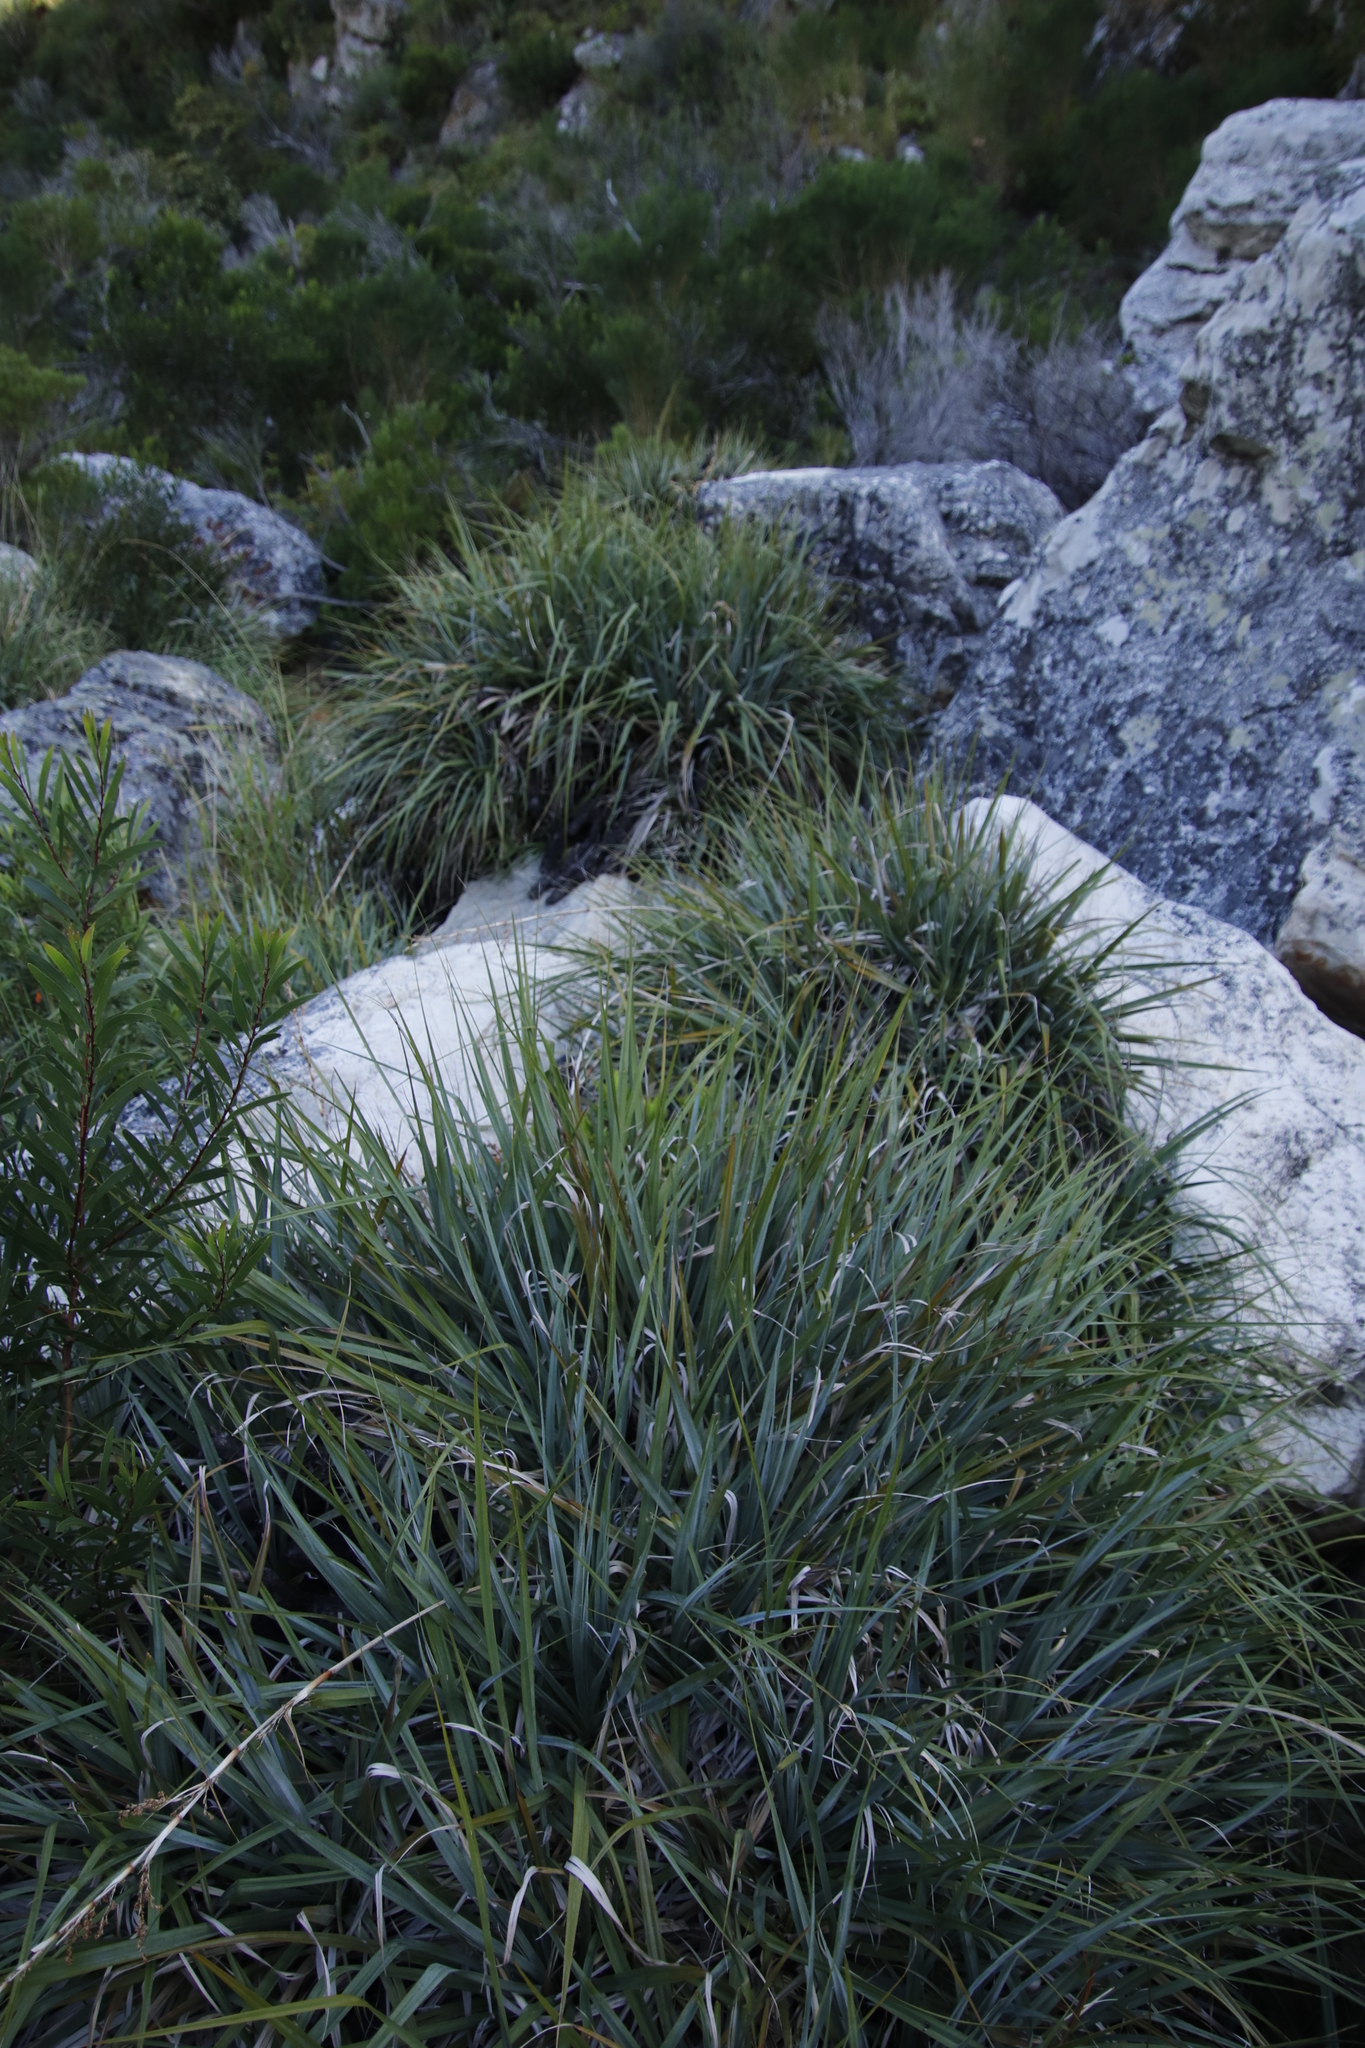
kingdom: Plantae
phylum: Tracheophyta
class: Liliopsida
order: Poales
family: Thurniaceae
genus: Prionium
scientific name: Prionium serratum
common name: Palmiet
